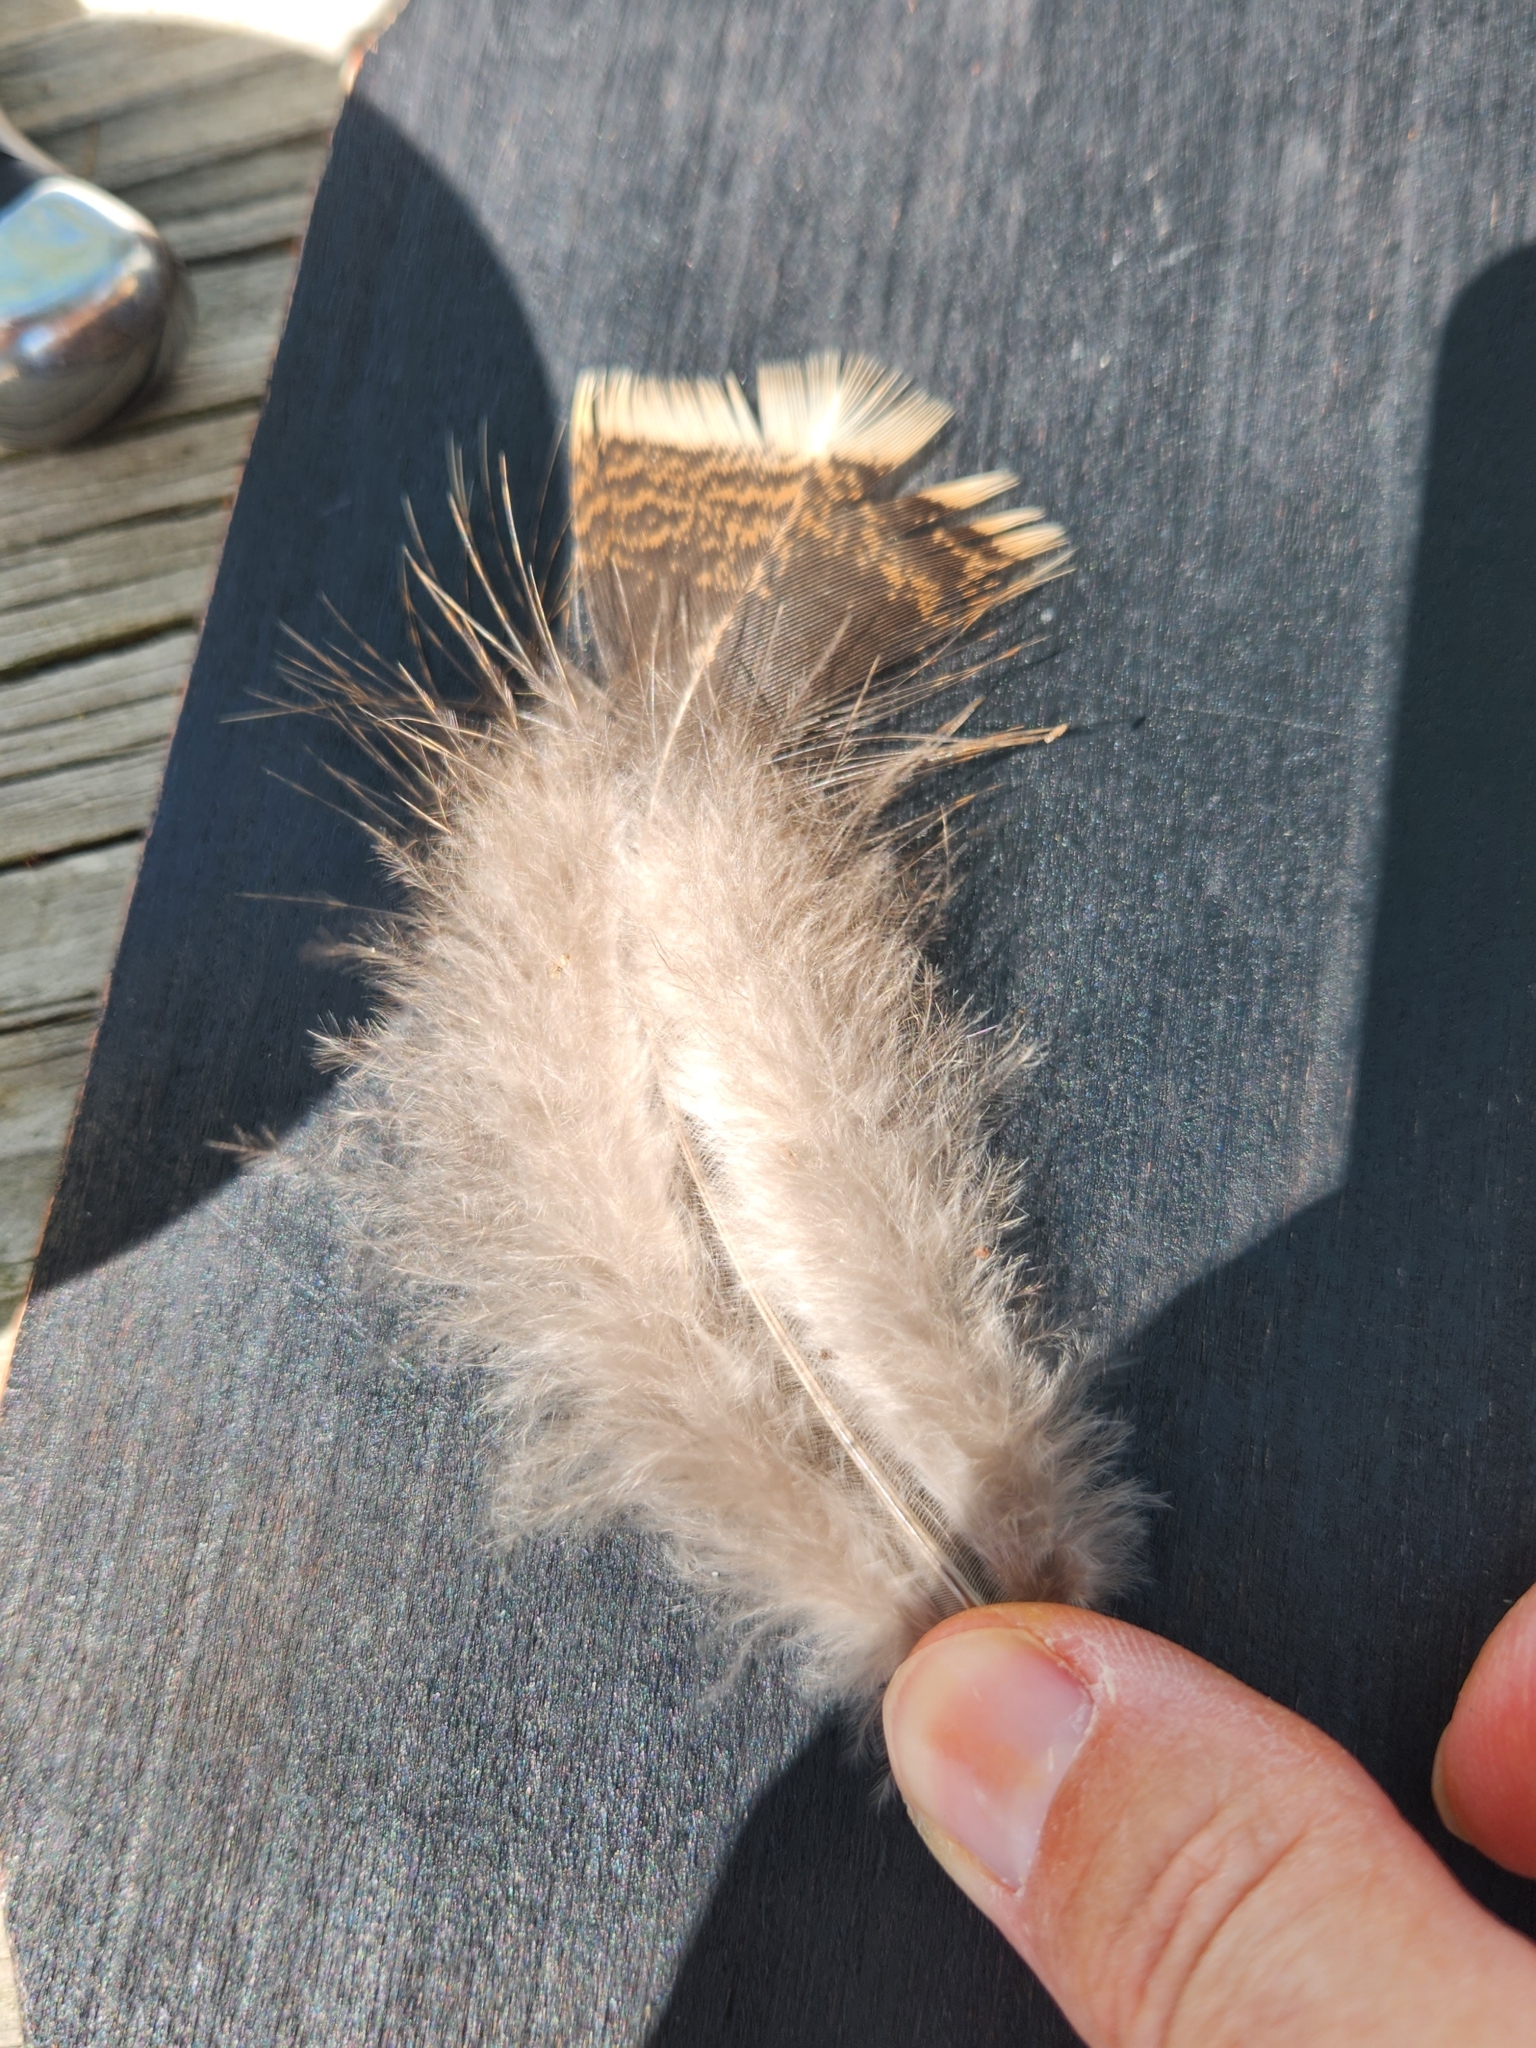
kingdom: Animalia
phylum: Chordata
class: Aves
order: Galliformes
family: Phasianidae
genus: Meleagris
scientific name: Meleagris gallopavo
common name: Wild turkey
